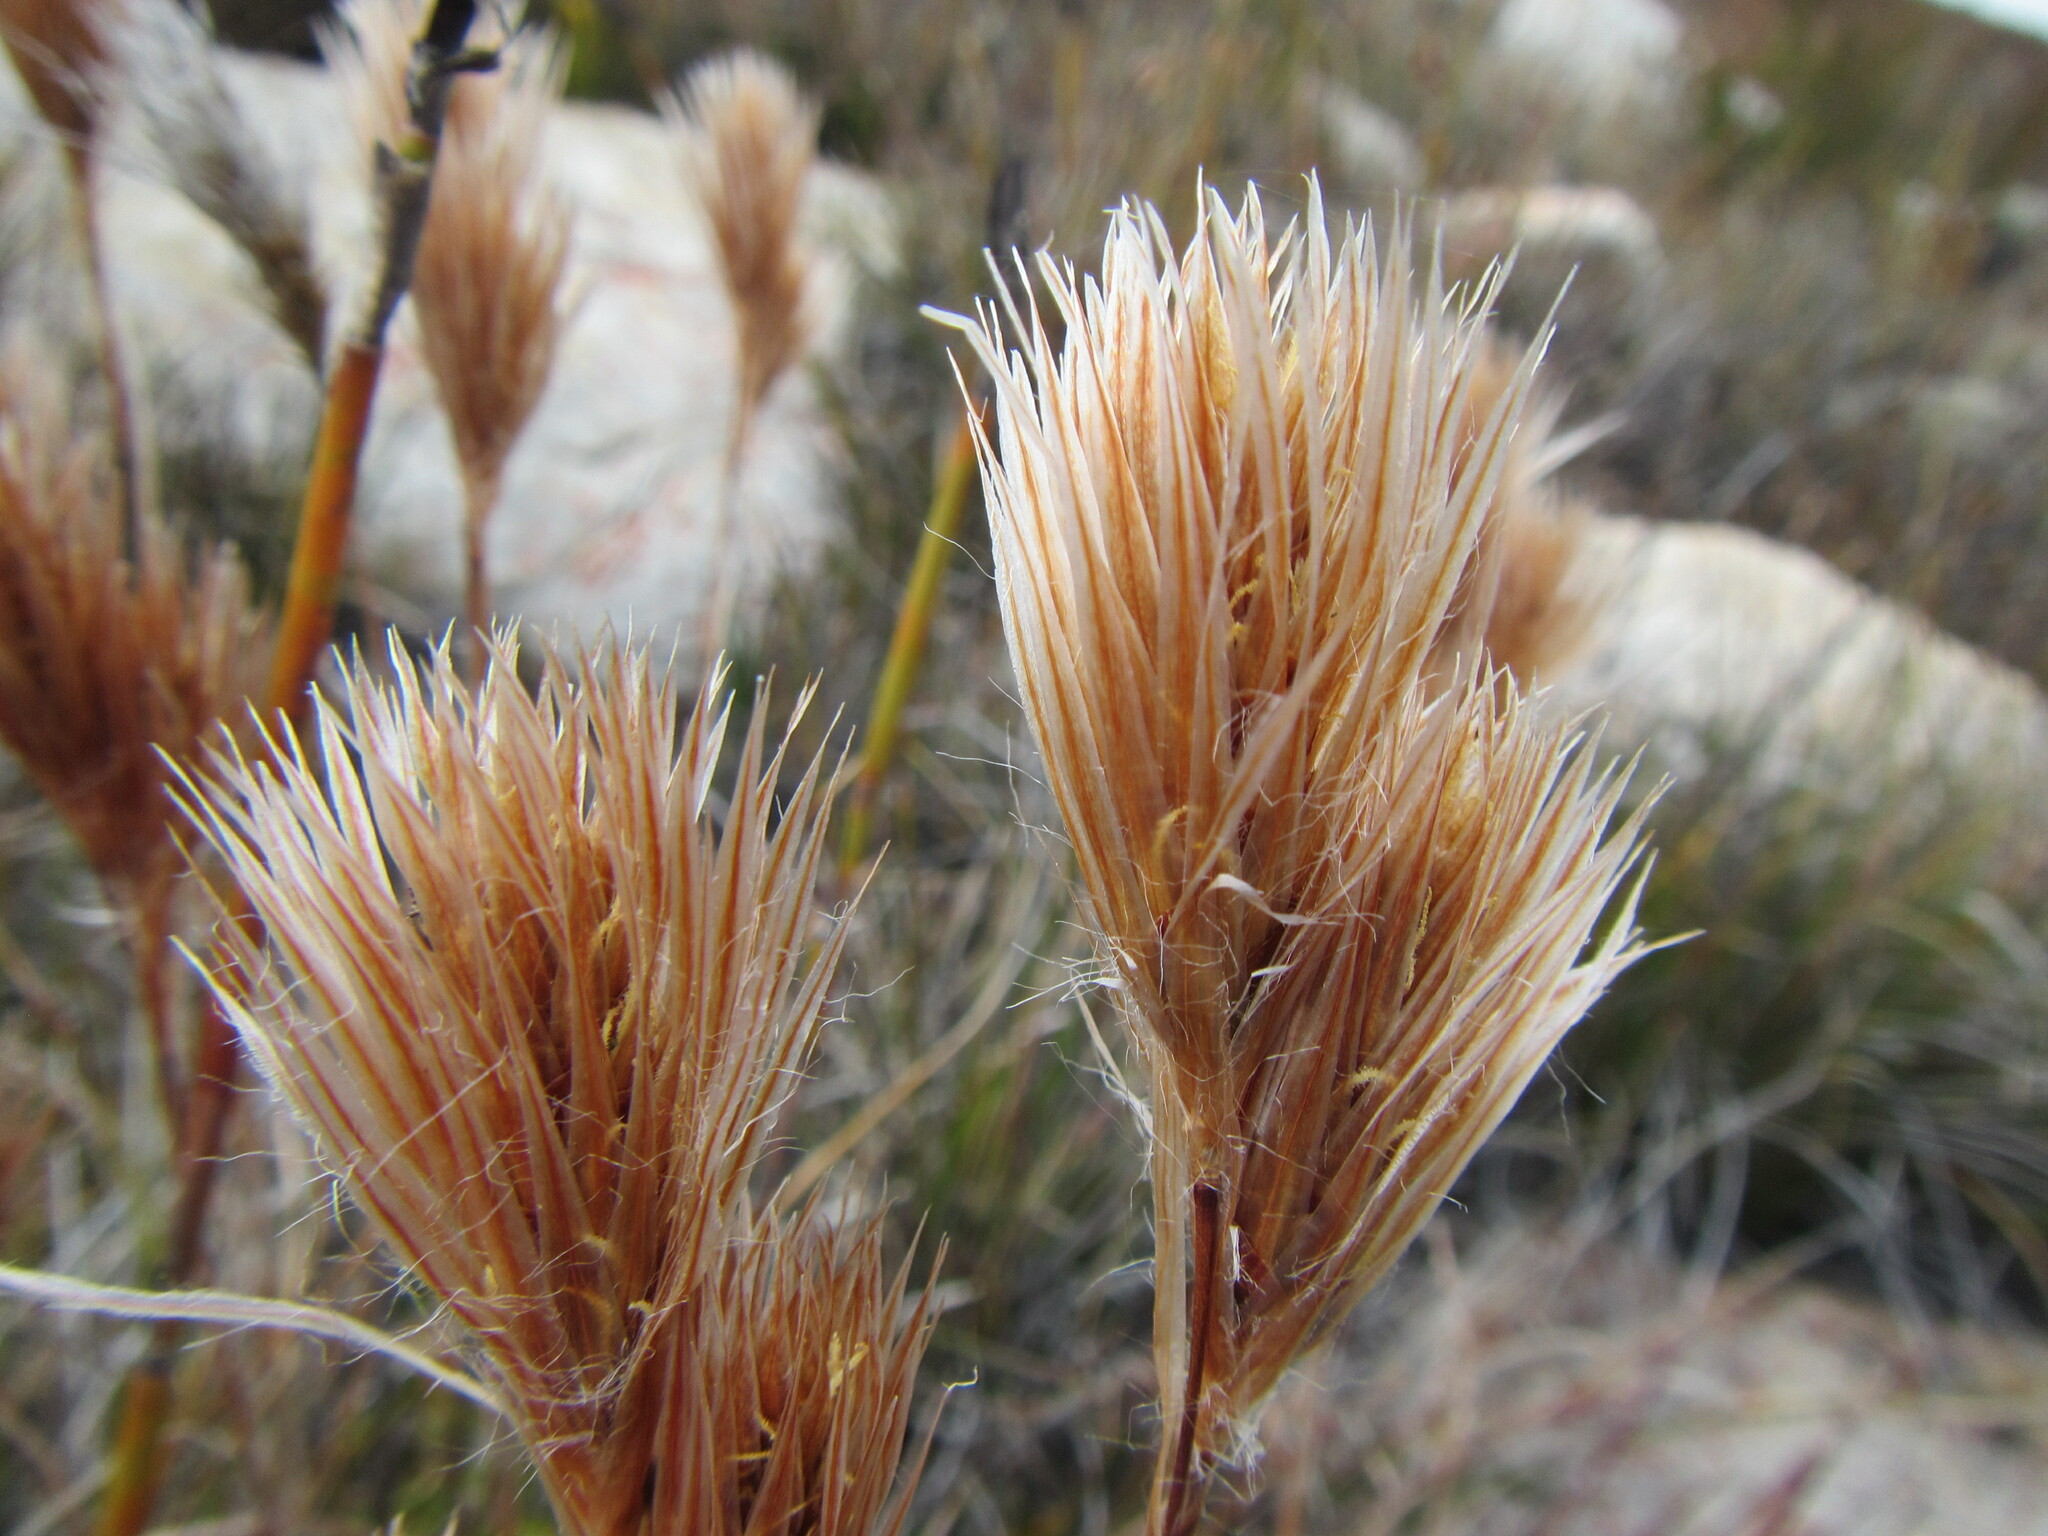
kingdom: Plantae
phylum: Tracheophyta
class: Liliopsida
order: Poales
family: Restionaceae
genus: Thamnochortus
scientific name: Thamnochortus acuminatus
